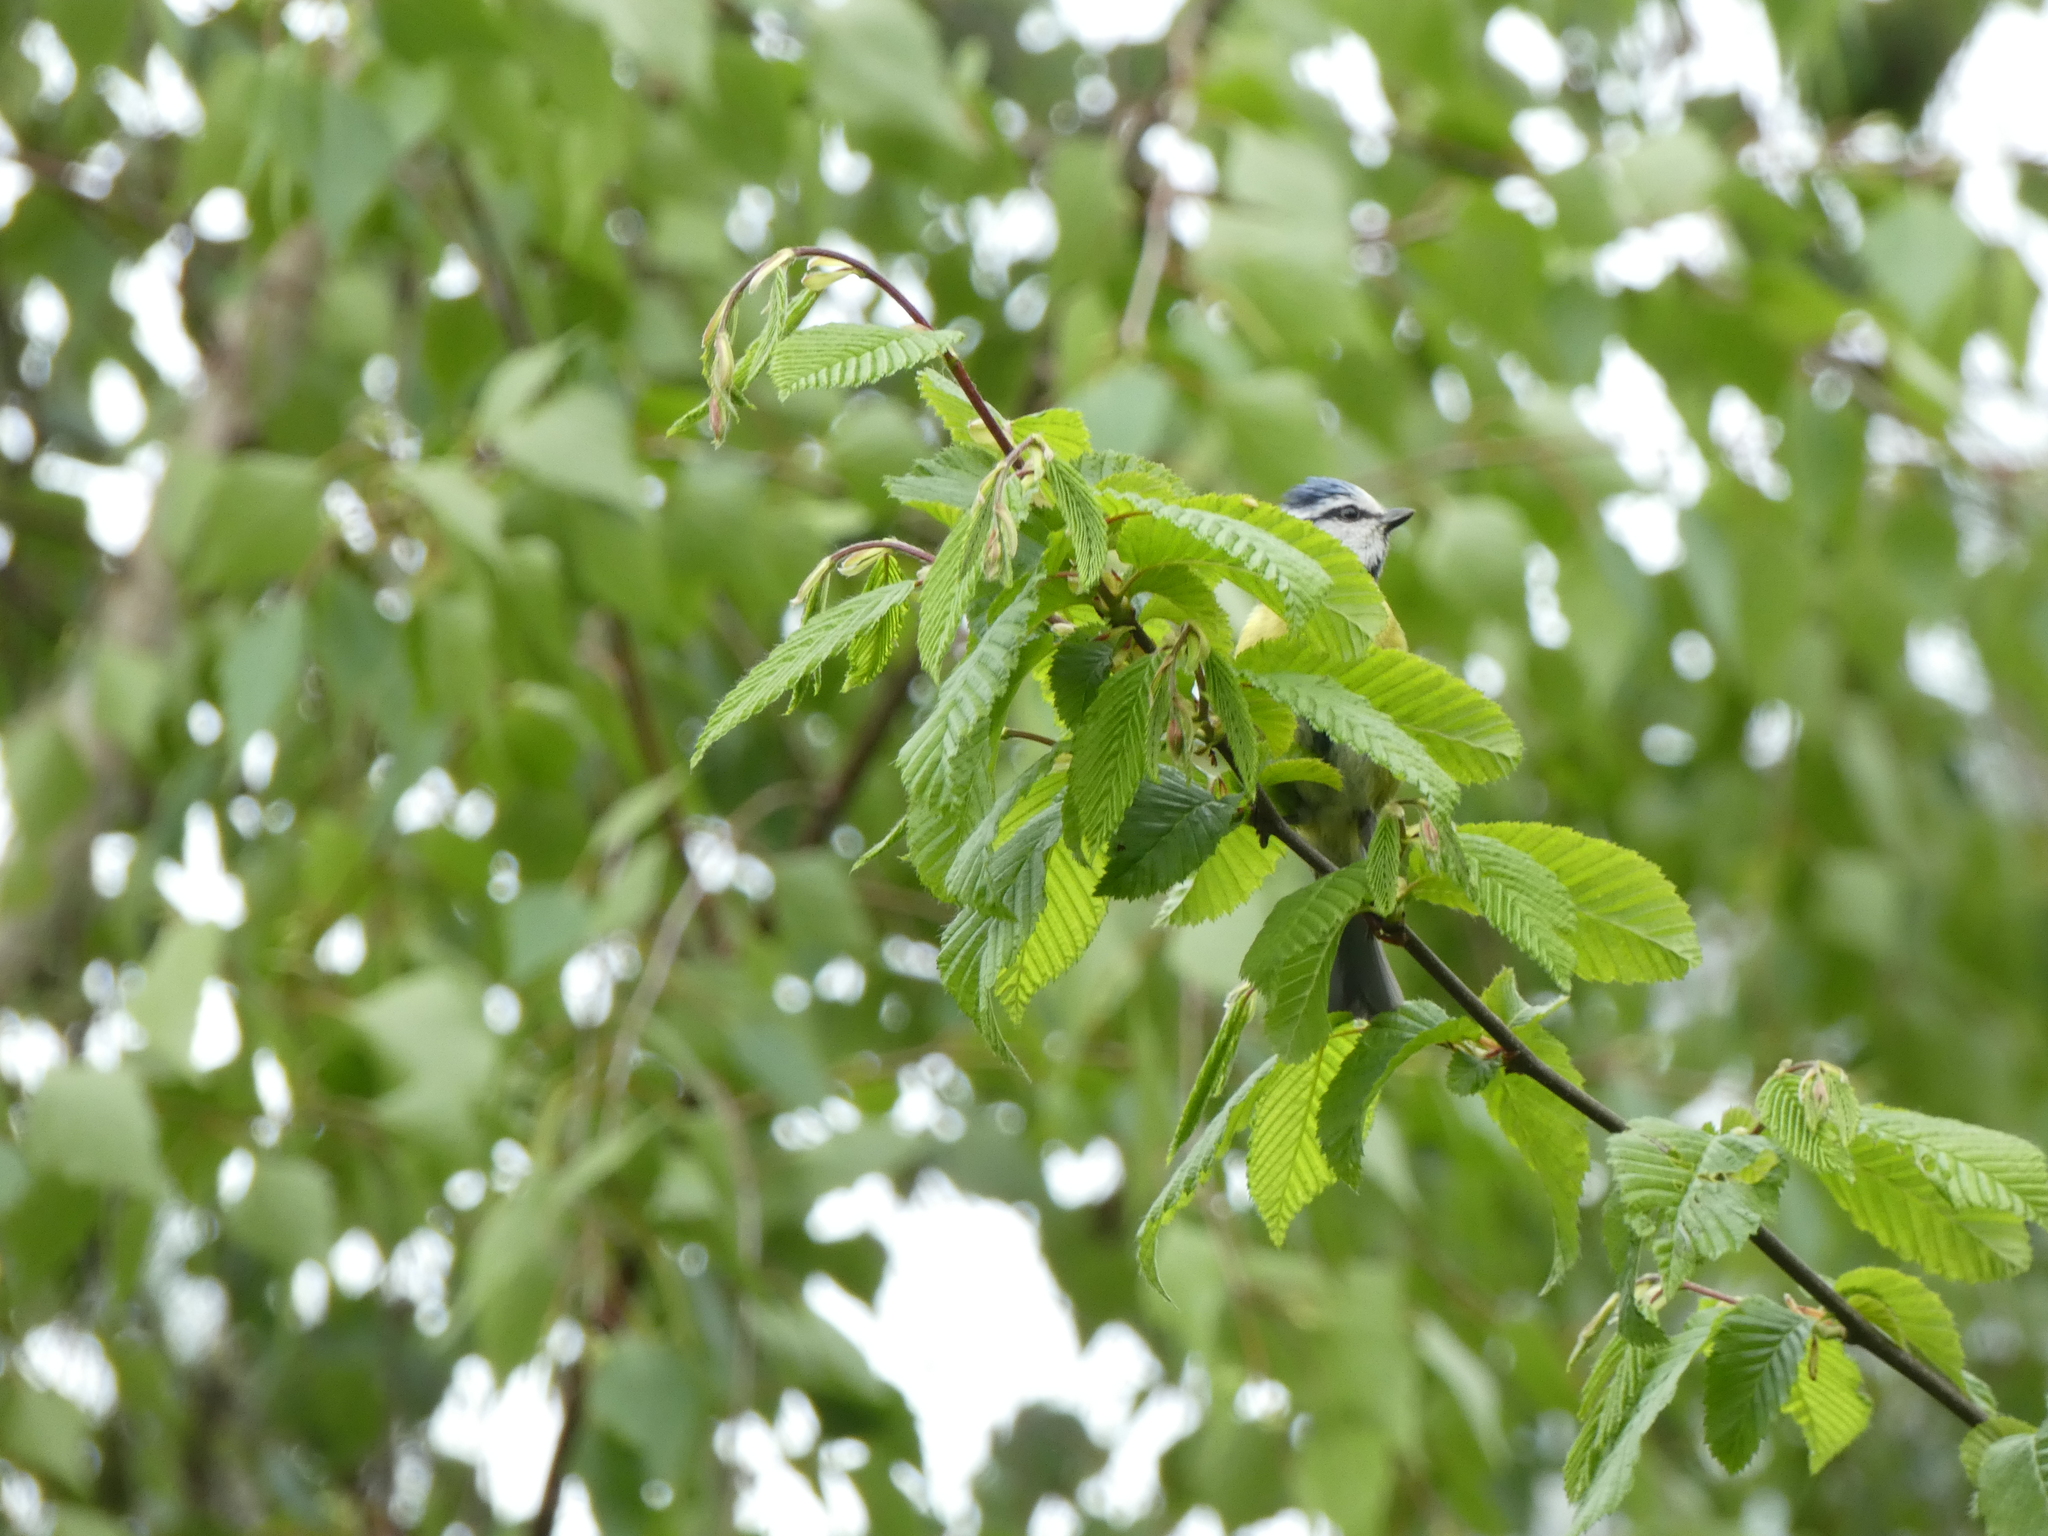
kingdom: Animalia
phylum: Chordata
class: Aves
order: Passeriformes
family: Paridae
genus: Cyanistes
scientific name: Cyanistes caeruleus
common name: Eurasian blue tit
